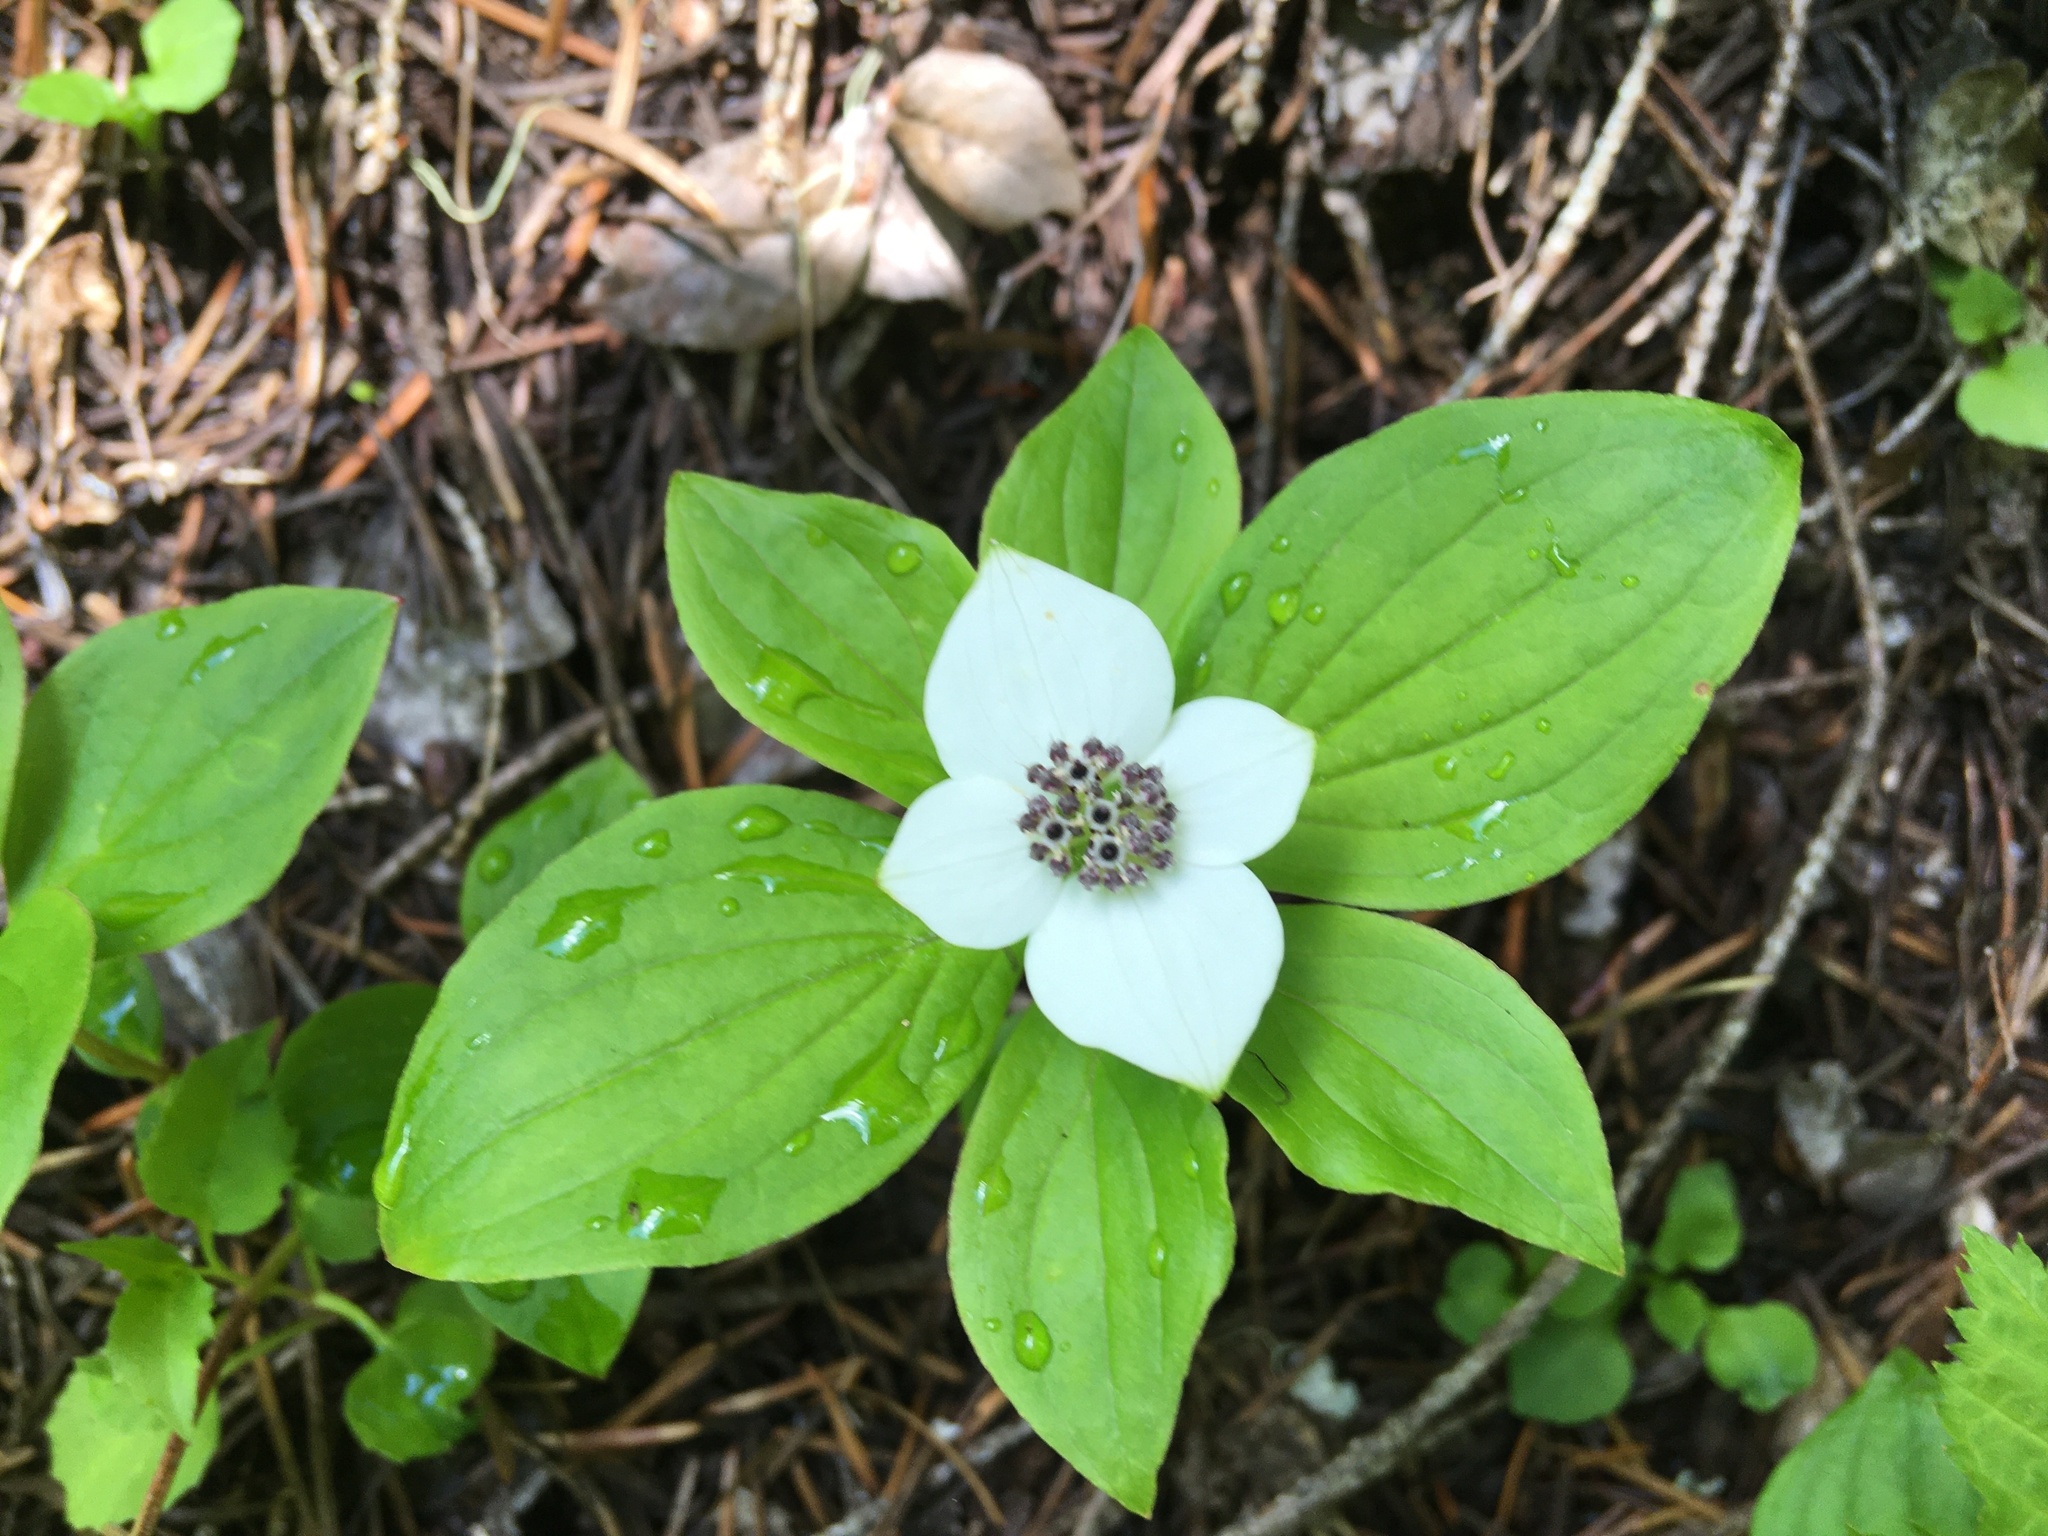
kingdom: Plantae
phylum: Tracheophyta
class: Magnoliopsida
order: Cornales
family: Cornaceae
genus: Cornus
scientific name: Cornus unalaschkensis
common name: Alaska bunchberry
